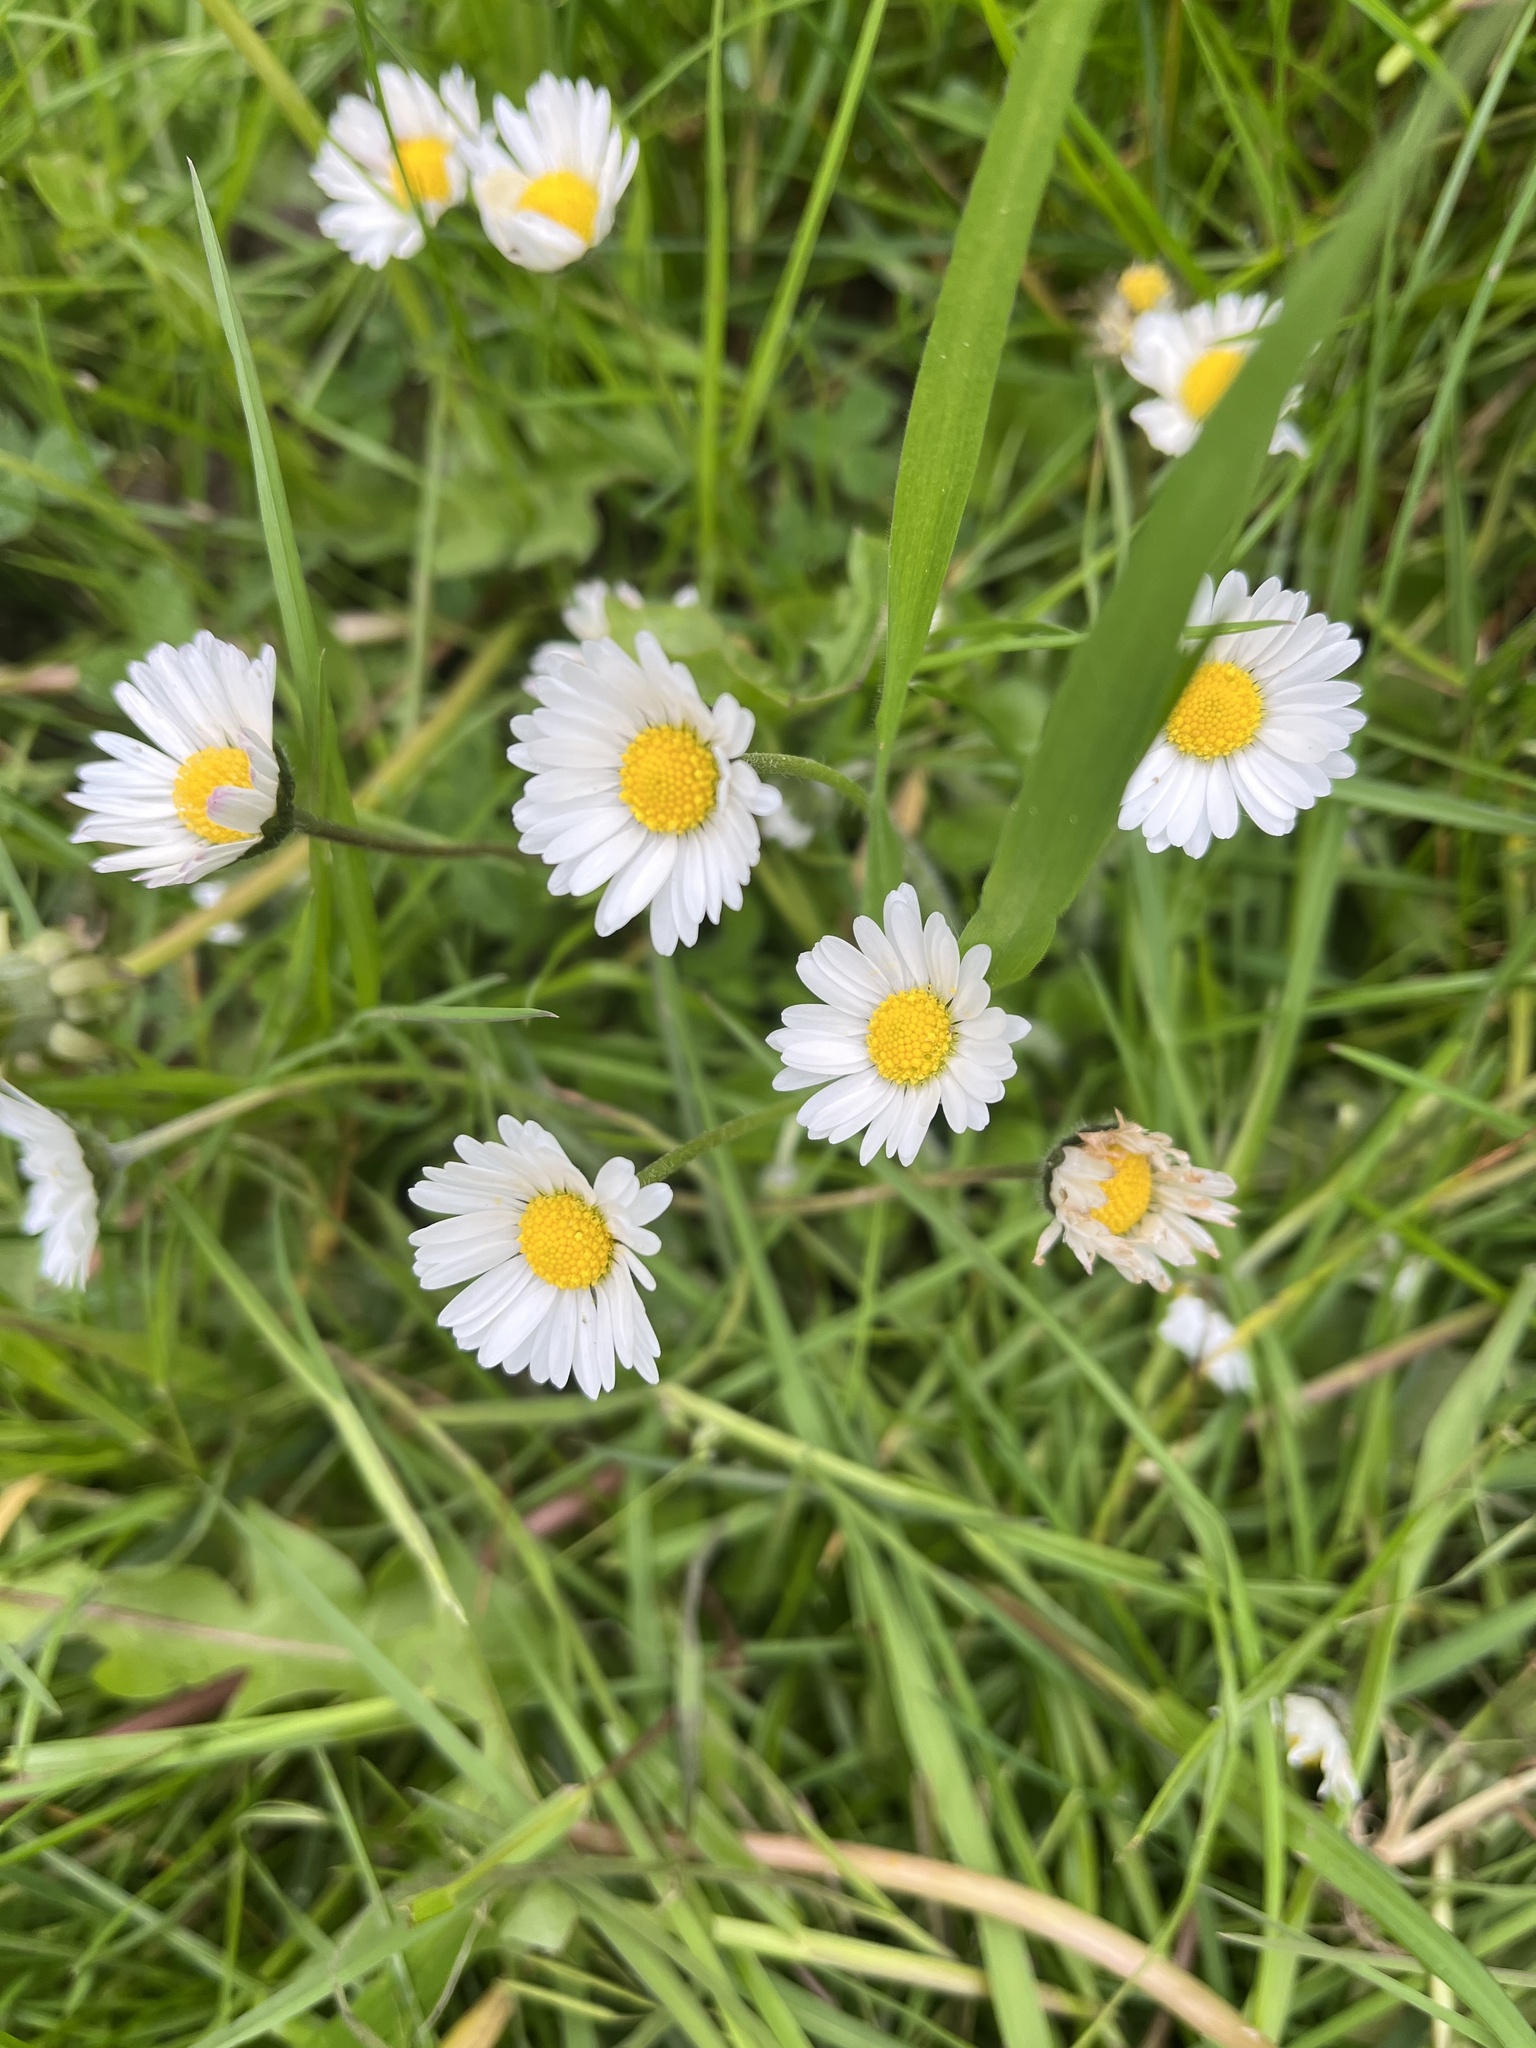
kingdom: Plantae
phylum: Tracheophyta
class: Magnoliopsida
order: Asterales
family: Asteraceae
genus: Bellis
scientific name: Bellis perennis
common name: Lawndaisy
